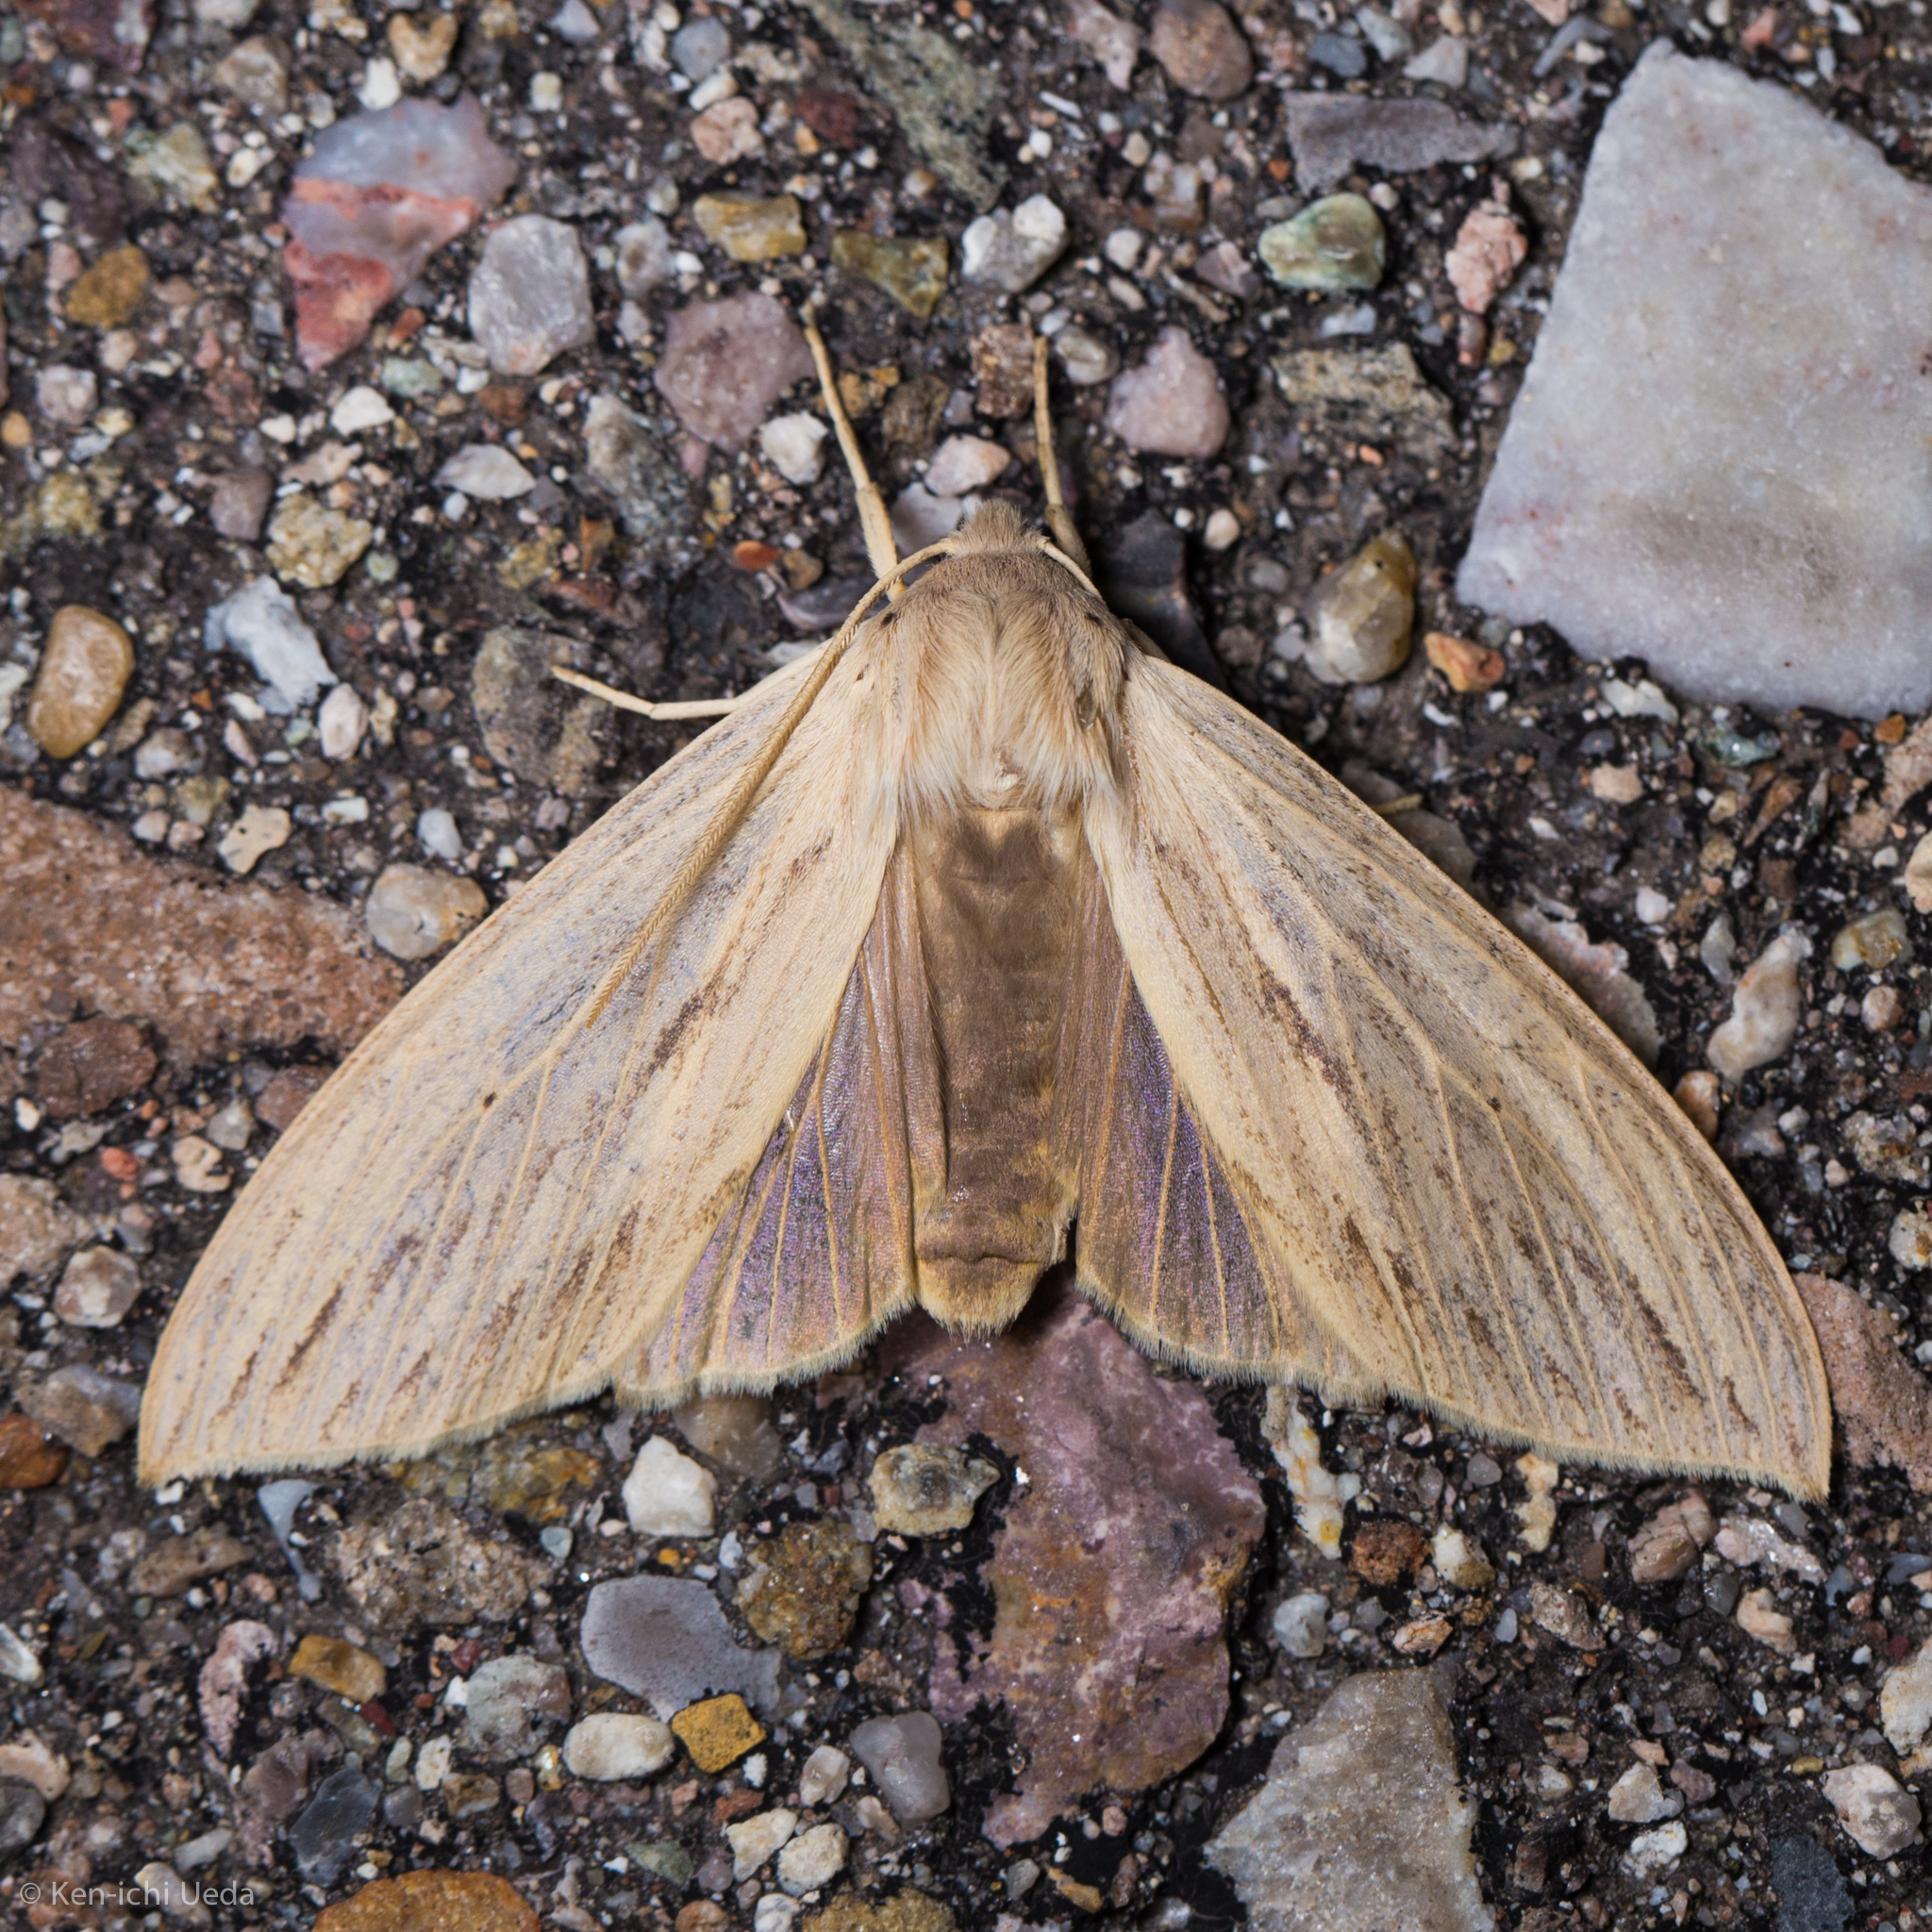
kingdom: Animalia
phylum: Arthropoda
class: Insecta
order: Lepidoptera
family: Erebidae
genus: Leucanopsis
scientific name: Leucanopsis lurida
